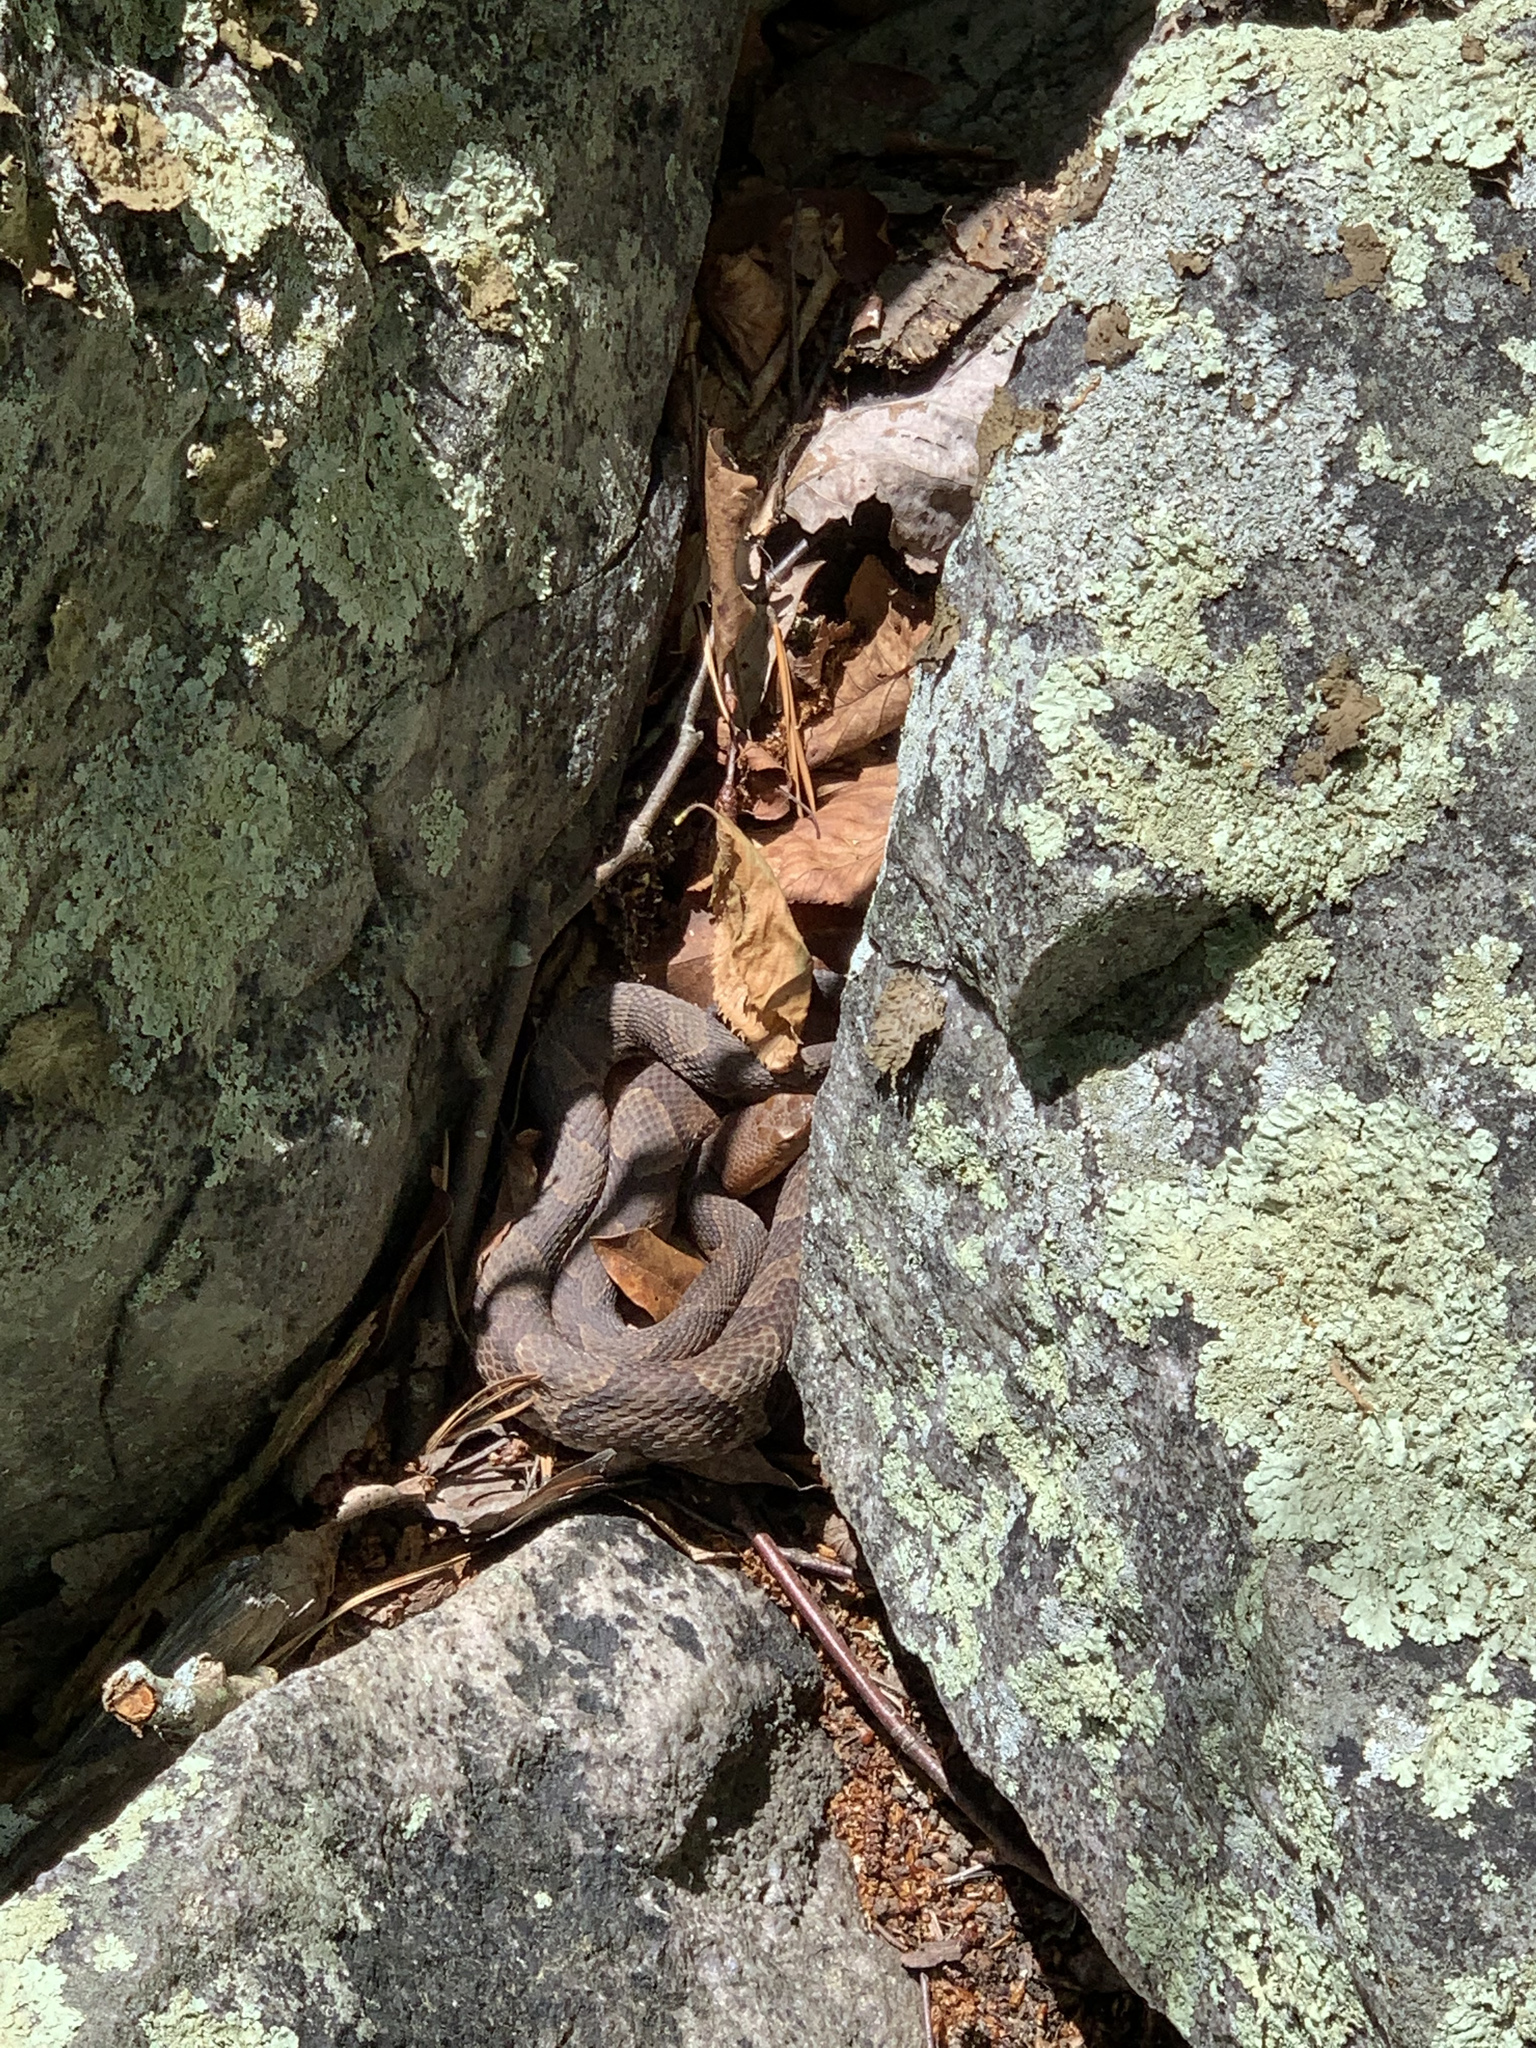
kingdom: Animalia
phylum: Chordata
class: Squamata
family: Viperidae
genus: Agkistrodon
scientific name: Agkistrodon contortrix
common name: Northern copperhead
